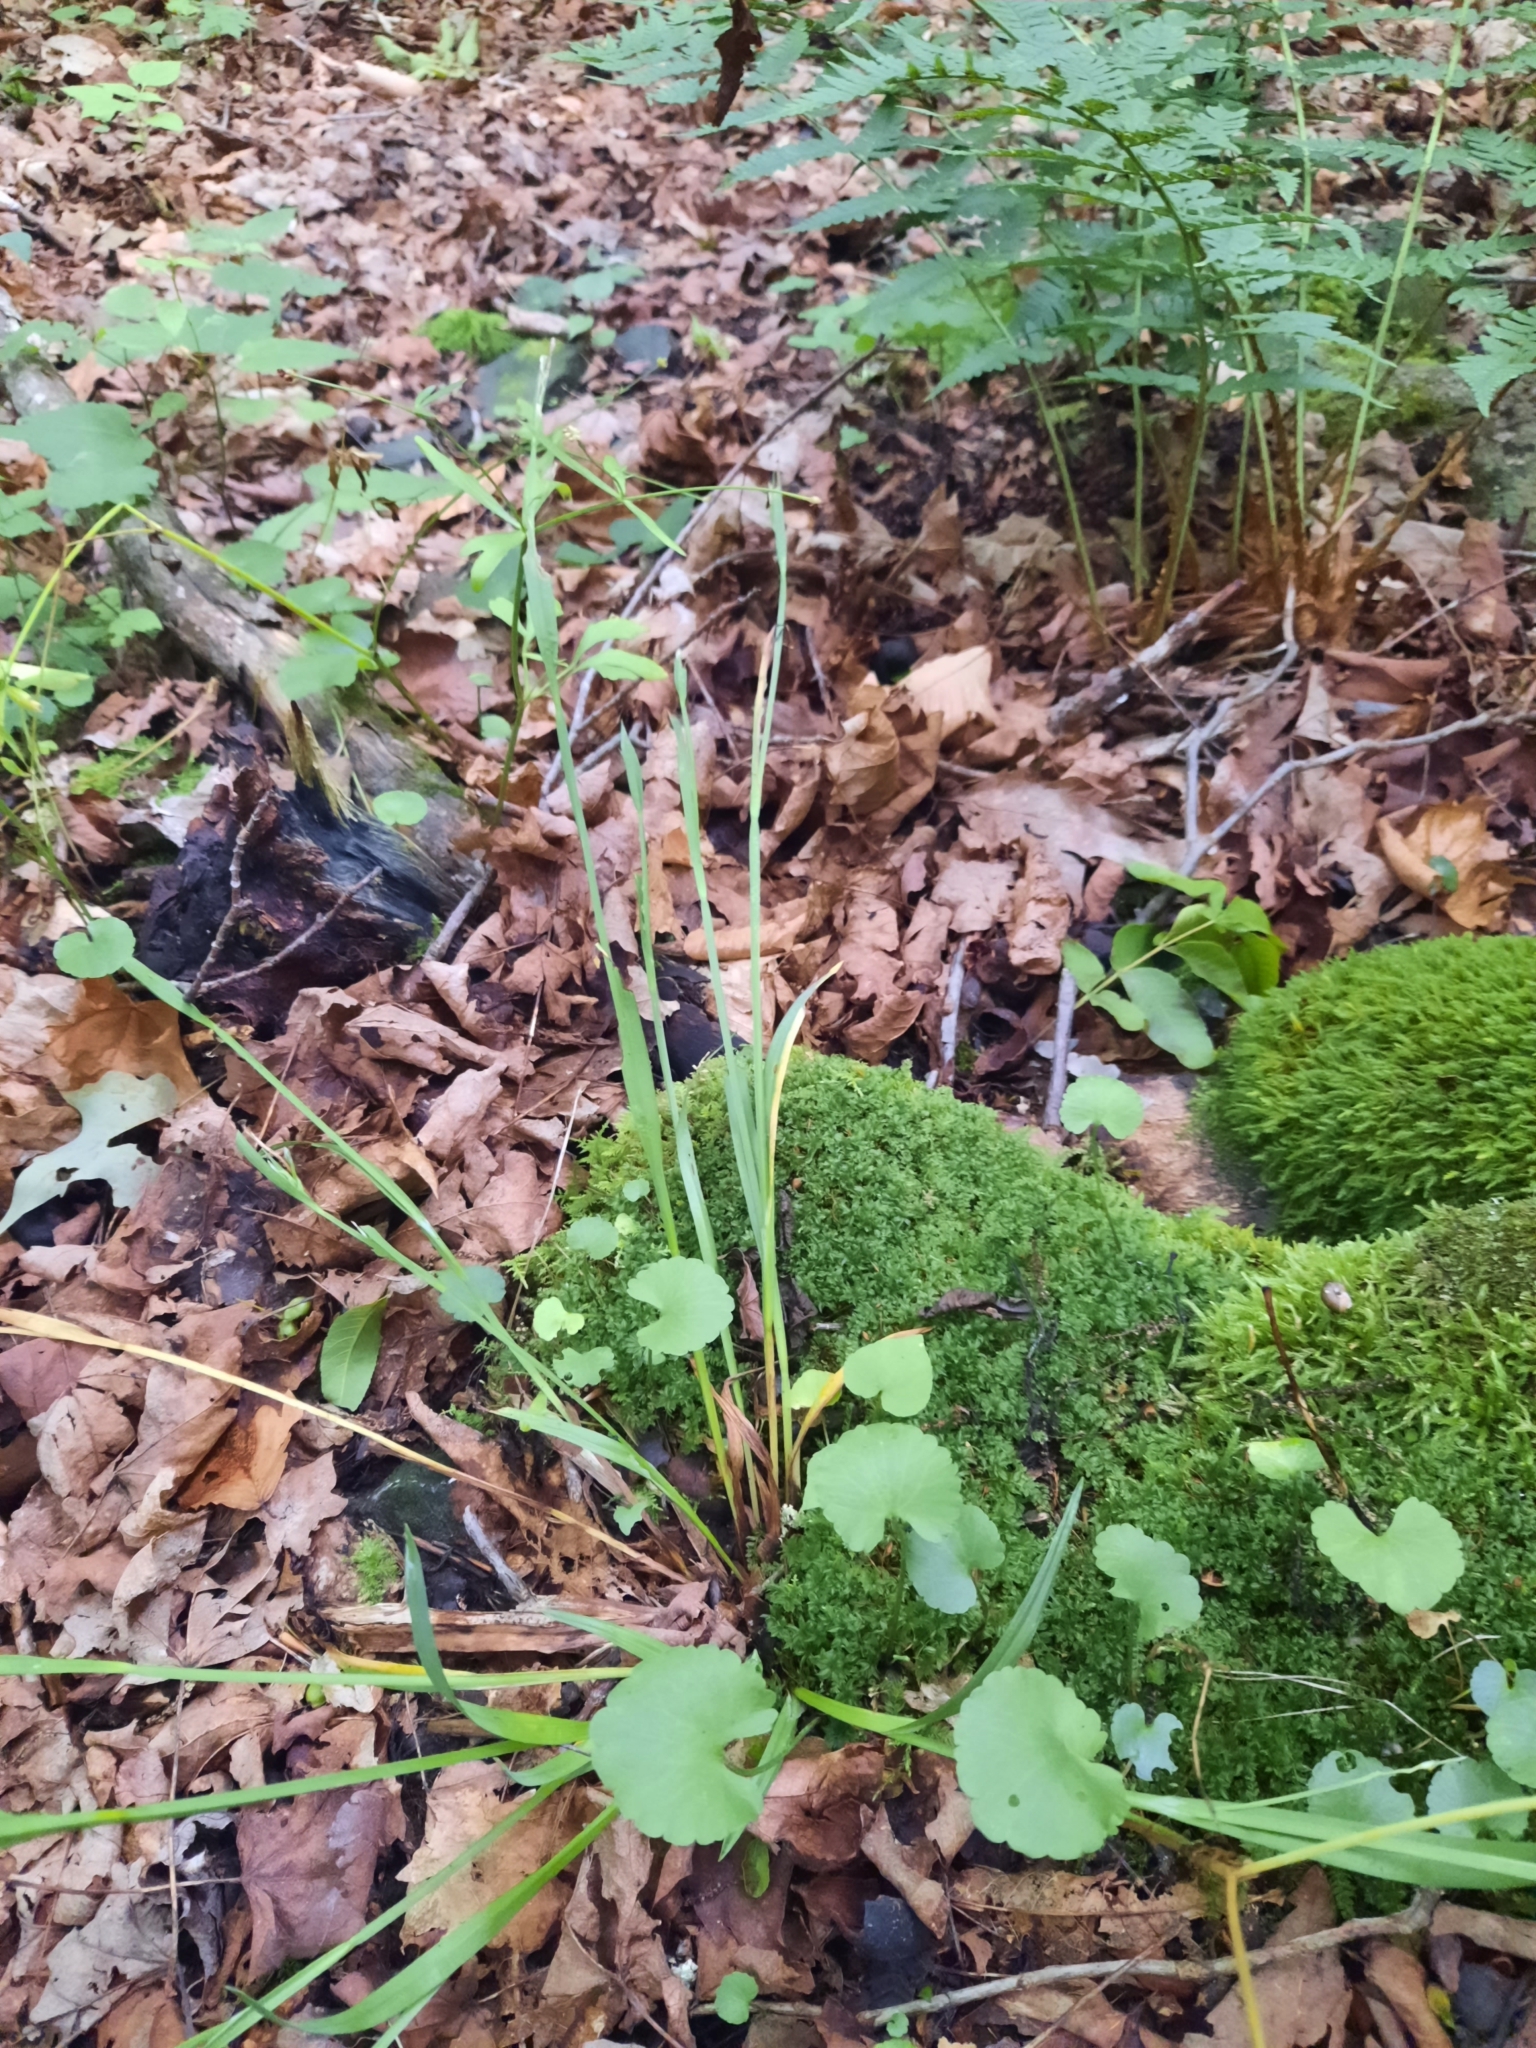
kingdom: Plantae
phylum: Tracheophyta
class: Magnoliopsida
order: Ranunculales
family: Ranunculaceae
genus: Ranunculus
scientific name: Ranunculus abortivus
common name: Early wood buttercup
